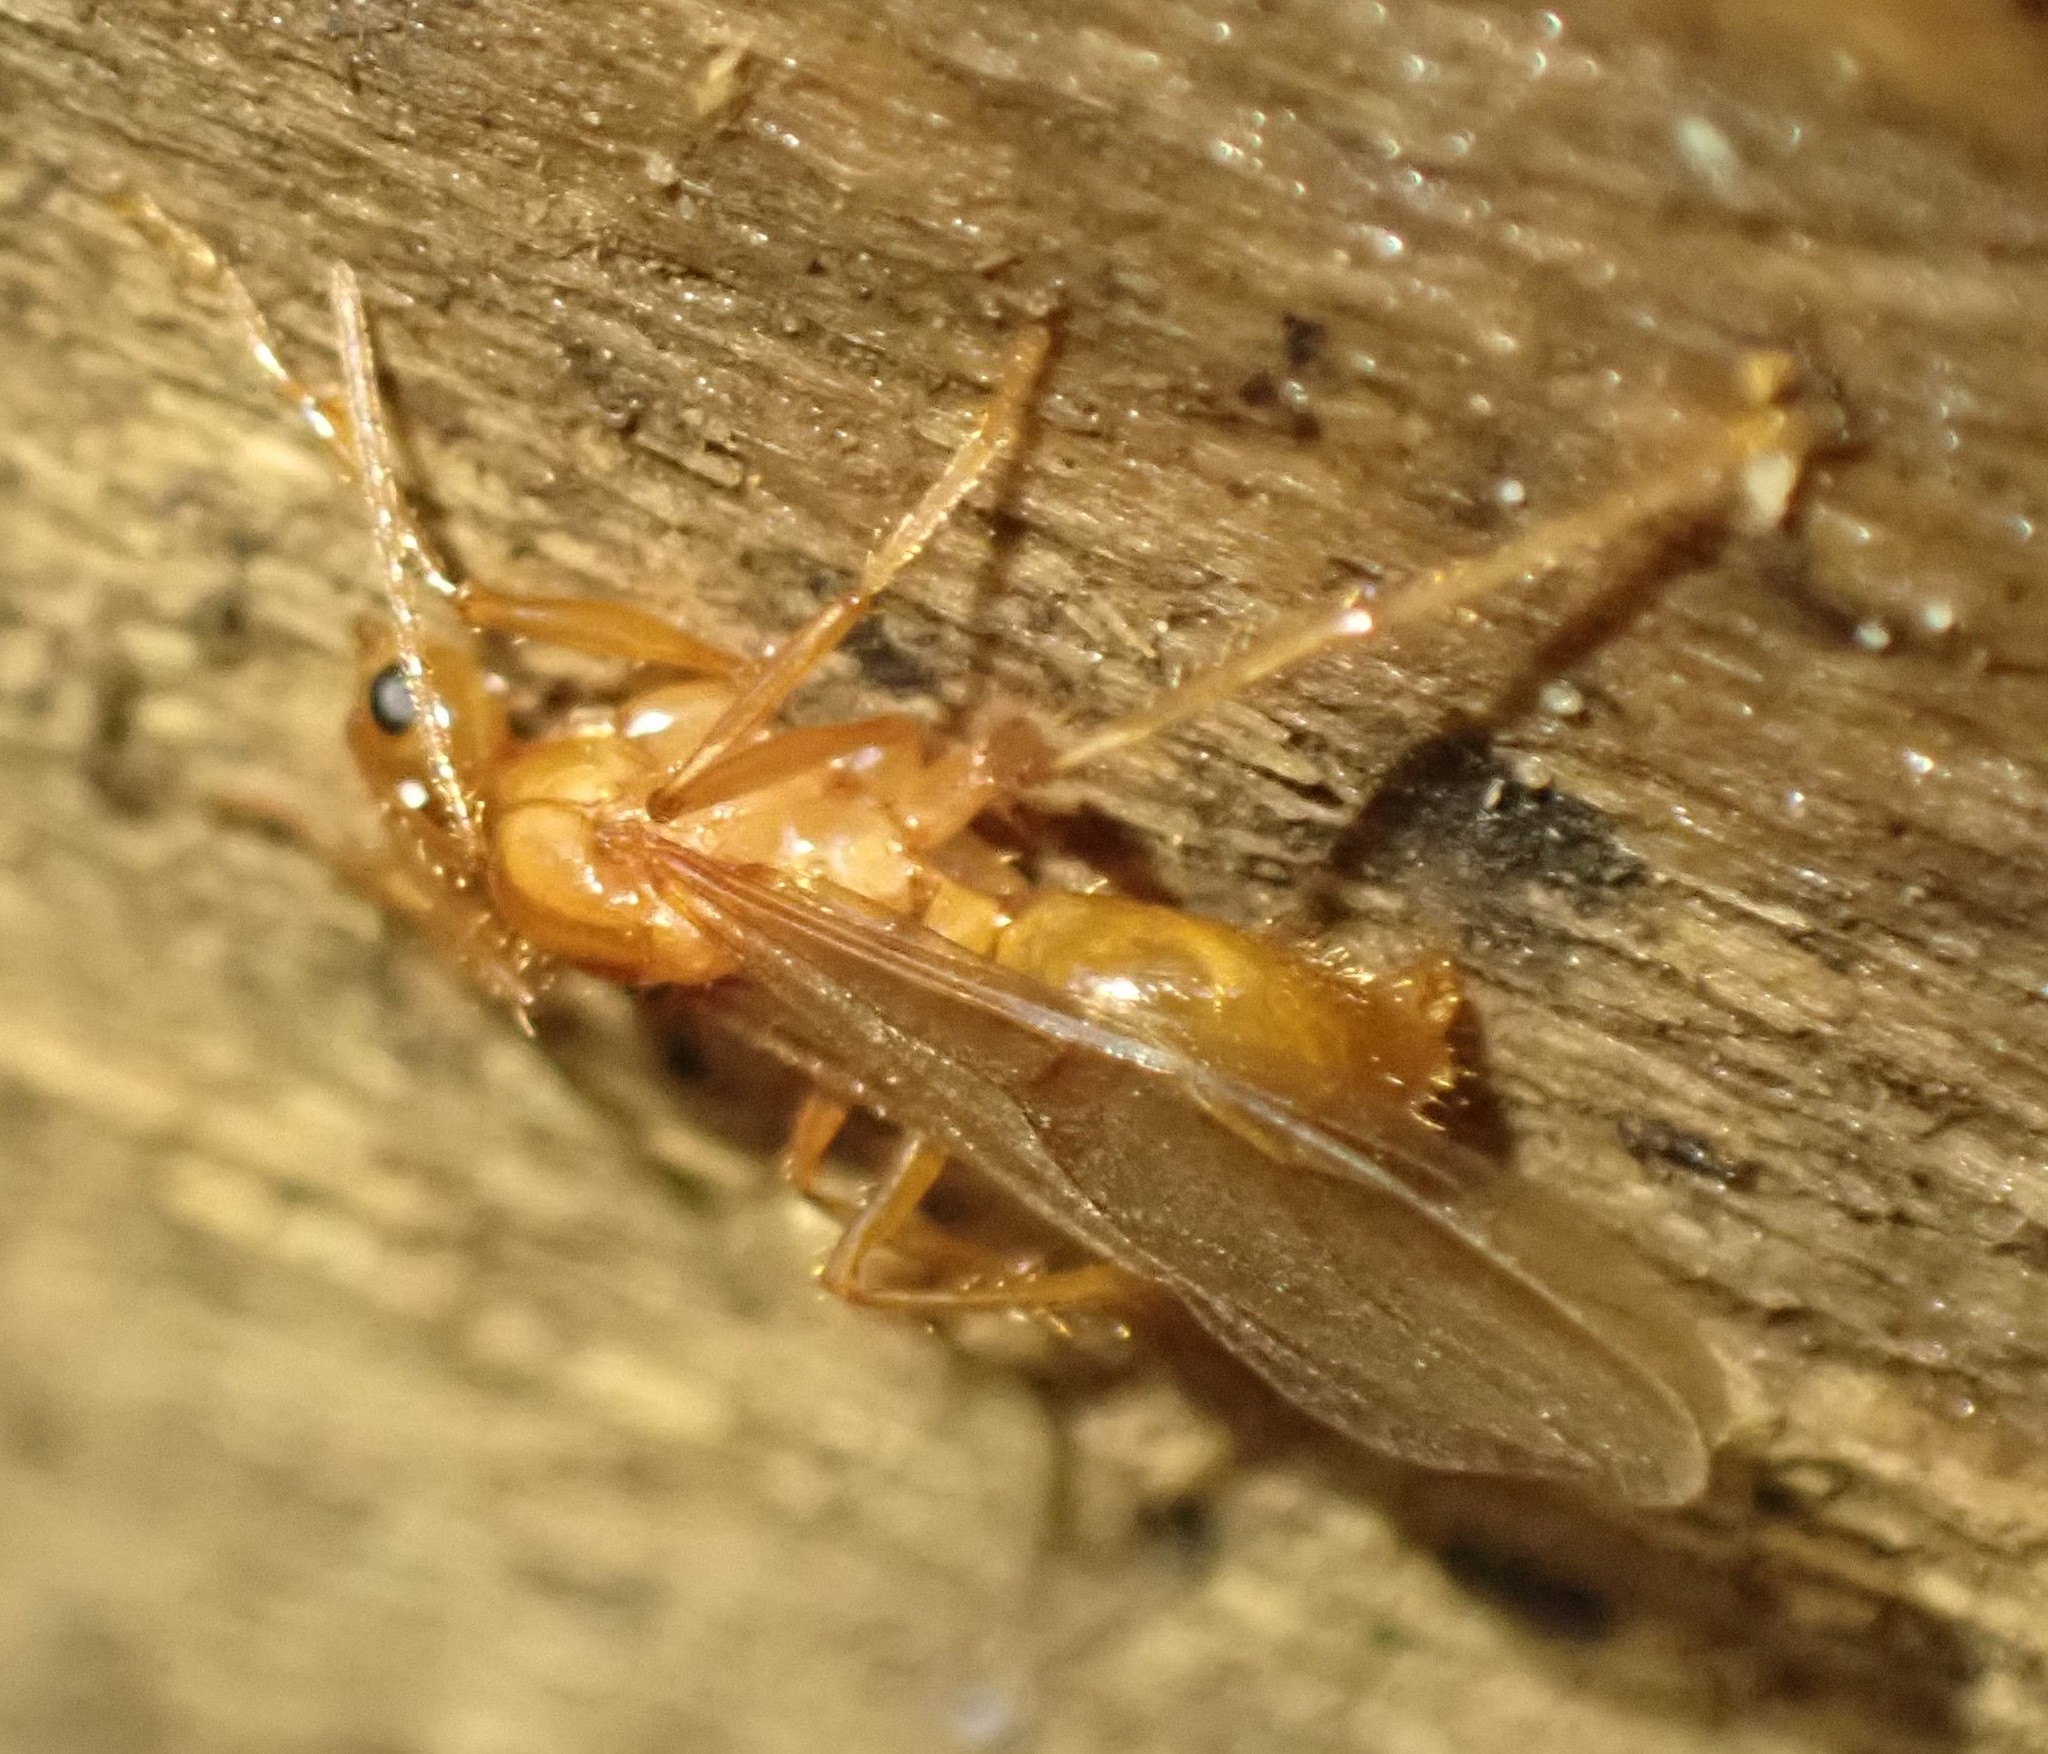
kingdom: Animalia
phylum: Arthropoda
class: Insecta
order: Hymenoptera
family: Formicidae
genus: Notoncus
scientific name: Notoncus spinisquamis
